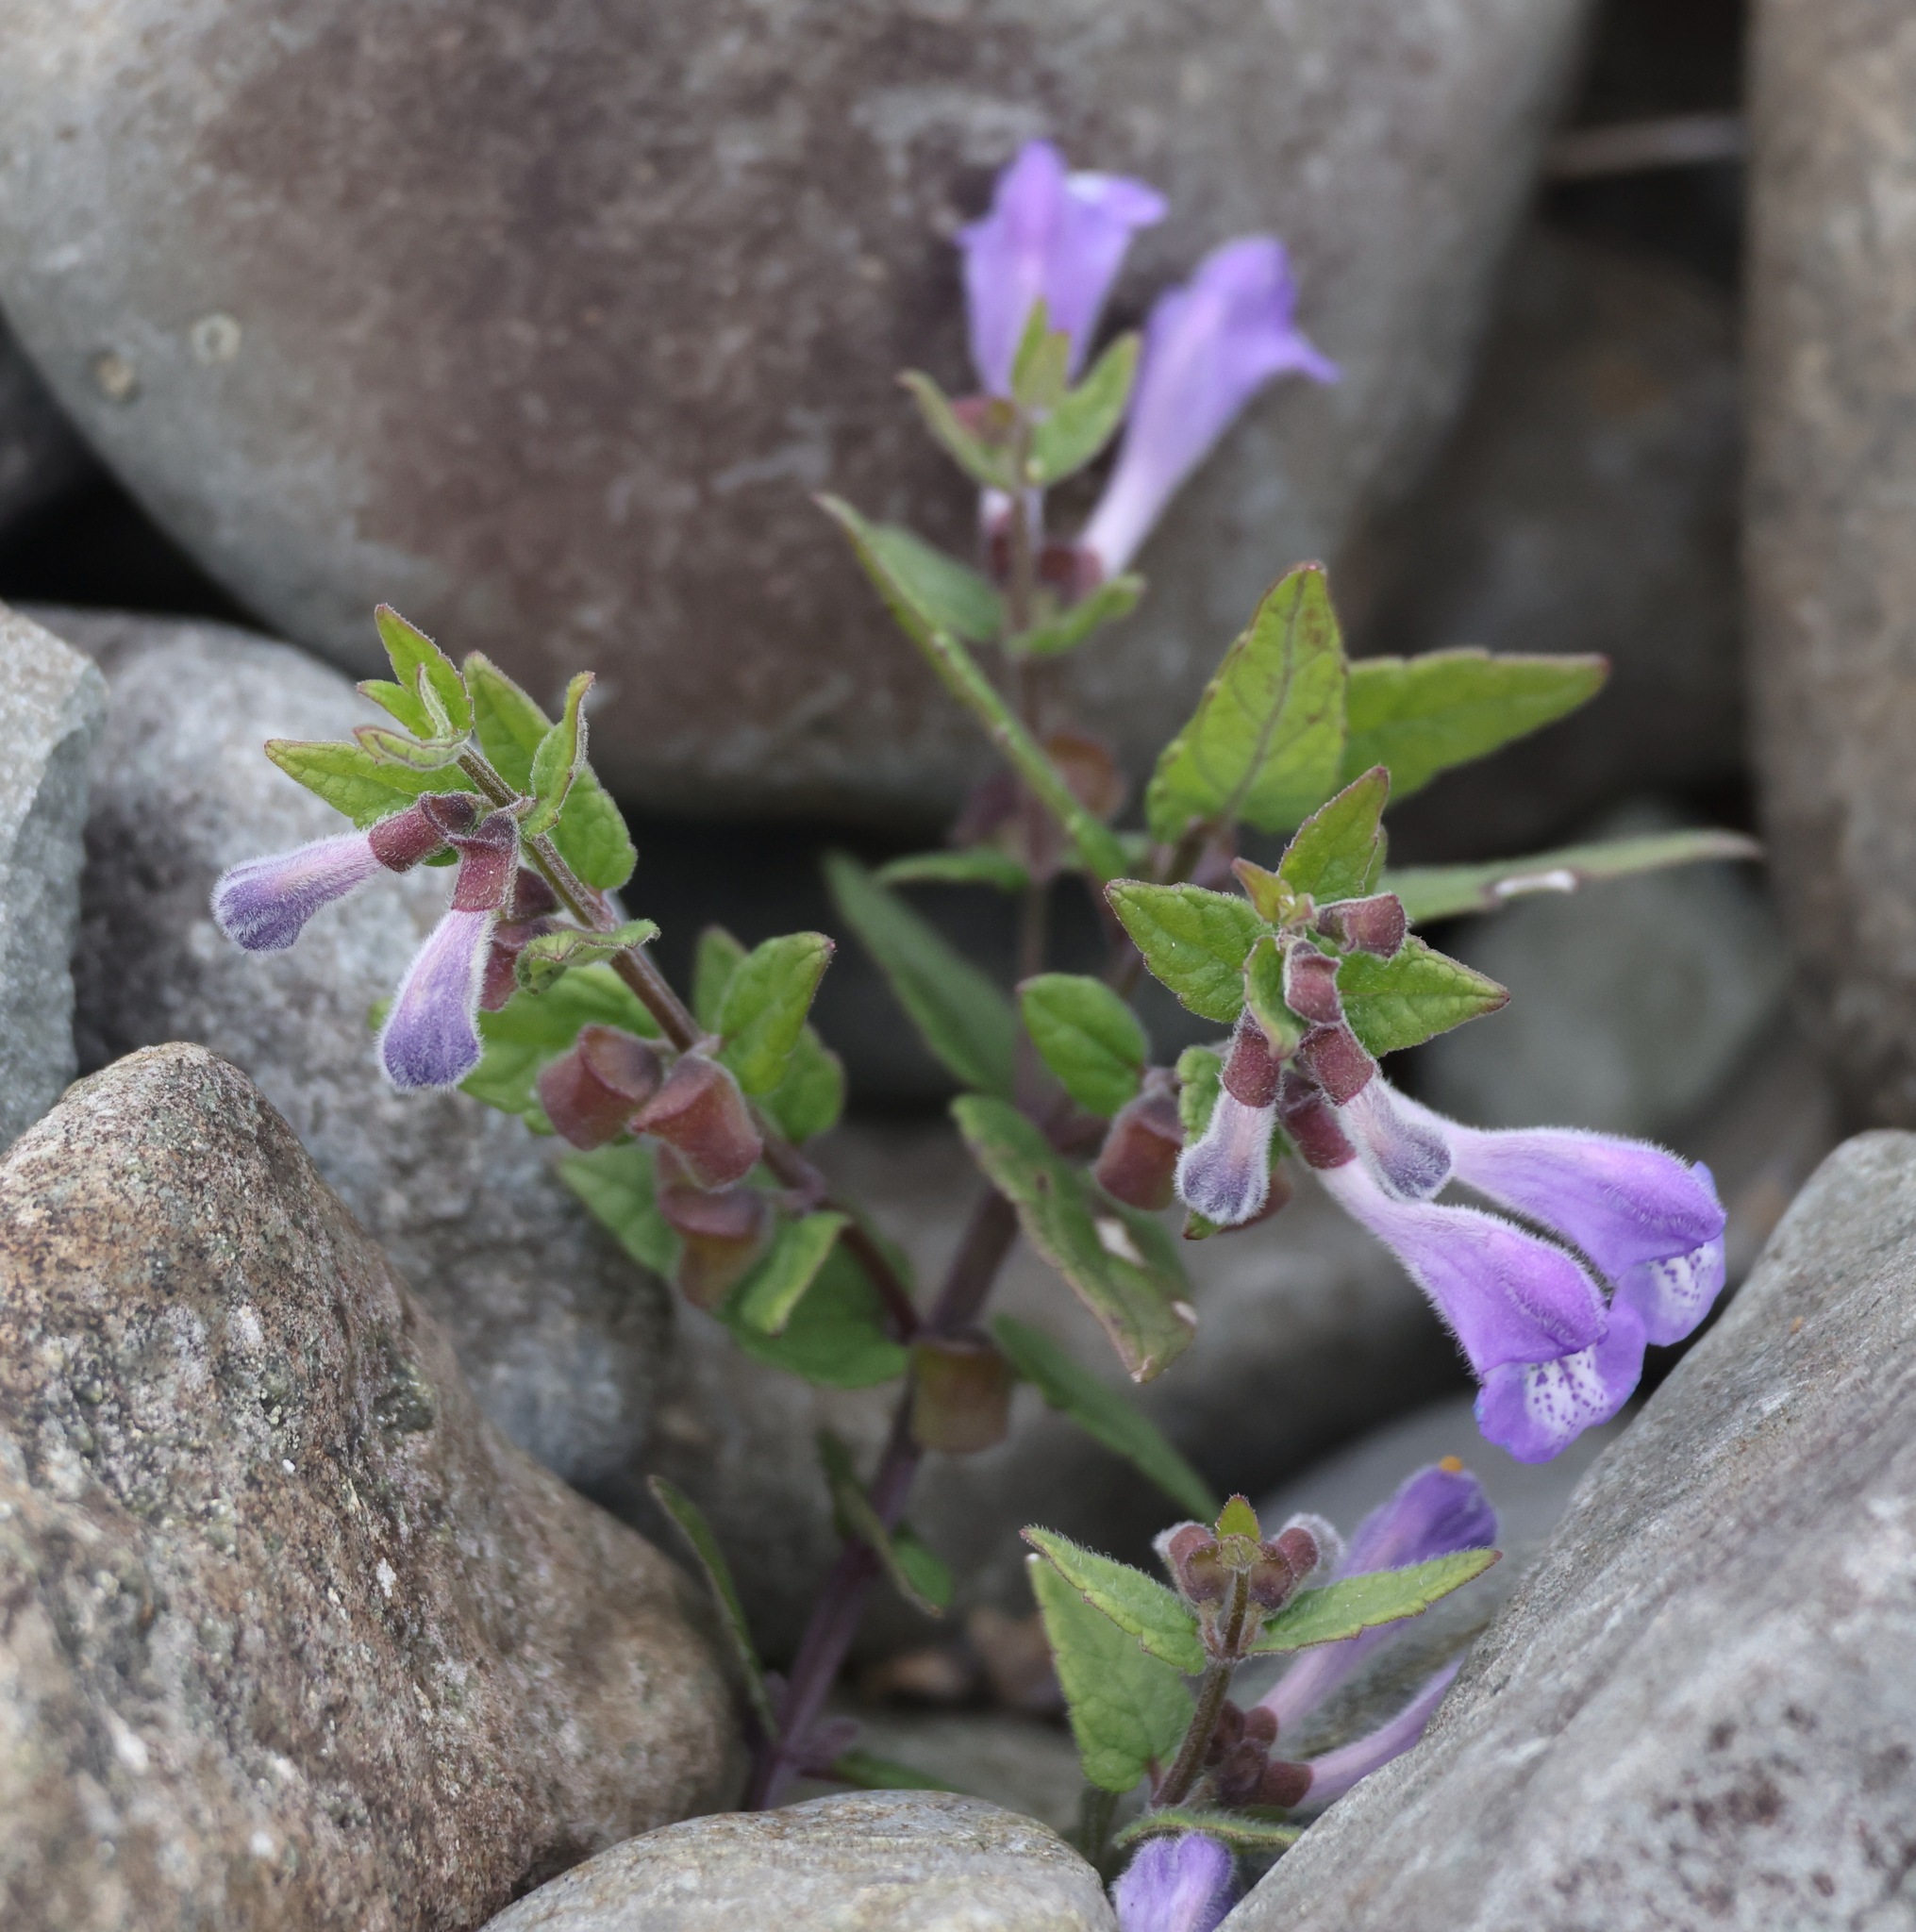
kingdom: Plantae
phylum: Tracheophyta
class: Magnoliopsida
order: Lamiales
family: Lamiaceae
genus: Scutellaria
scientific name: Scutellaria galericulata
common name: Skullcap
